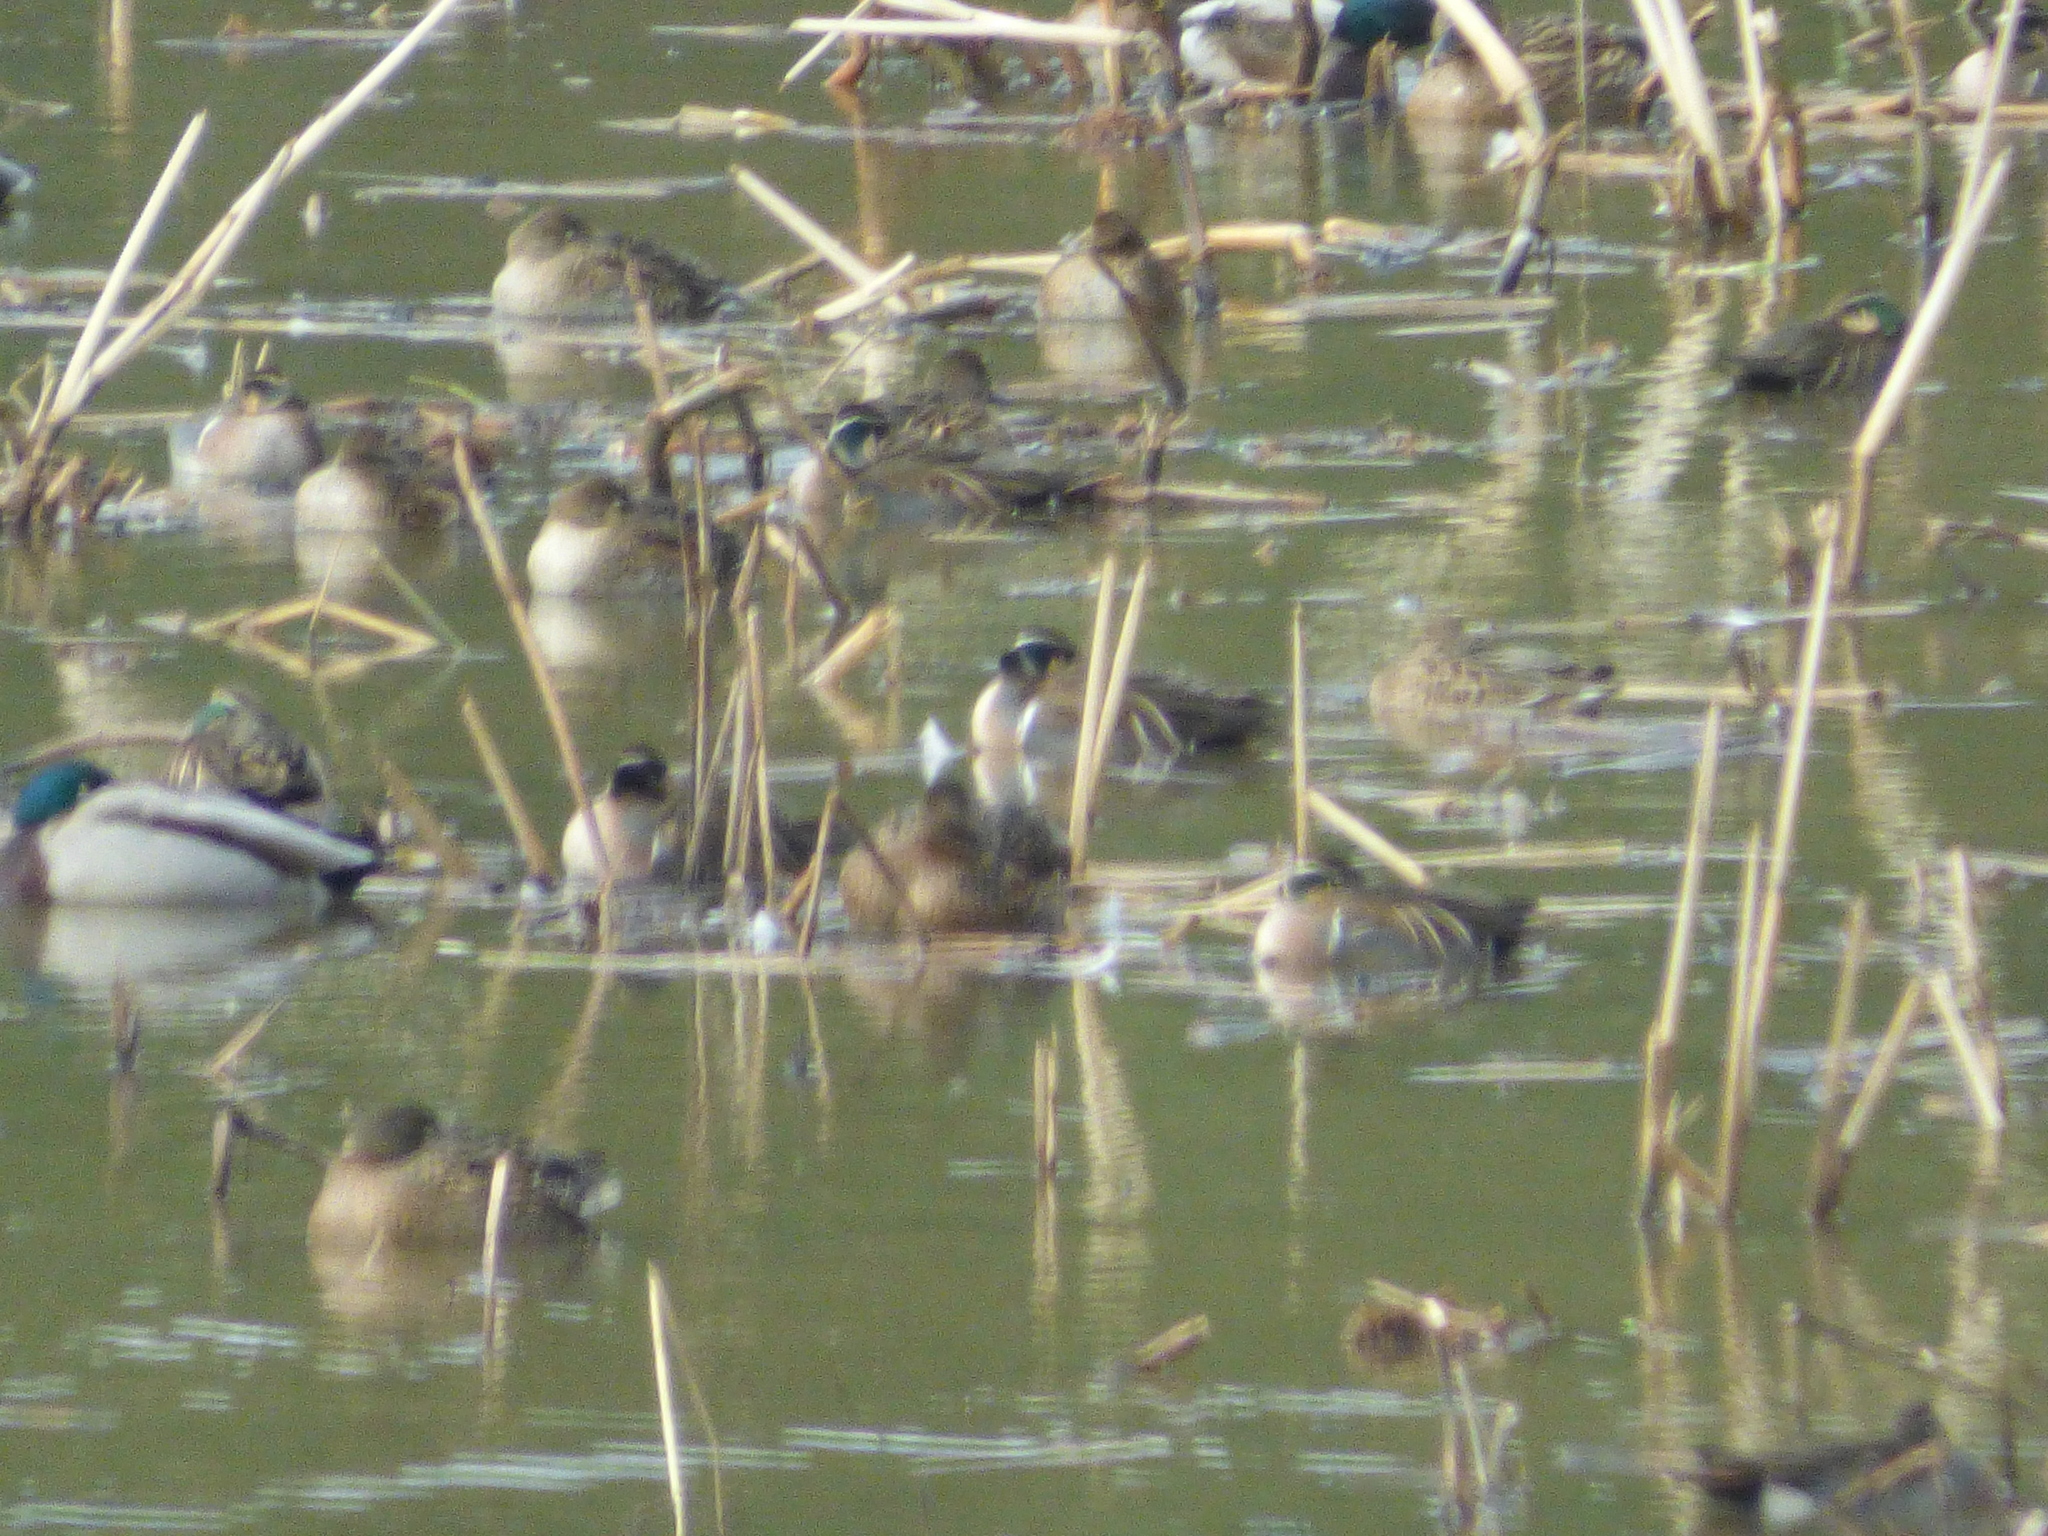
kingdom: Animalia
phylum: Chordata
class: Aves
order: Anseriformes
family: Anatidae
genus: Sibirionetta
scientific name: Sibirionetta formosa
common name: Baikal teal
